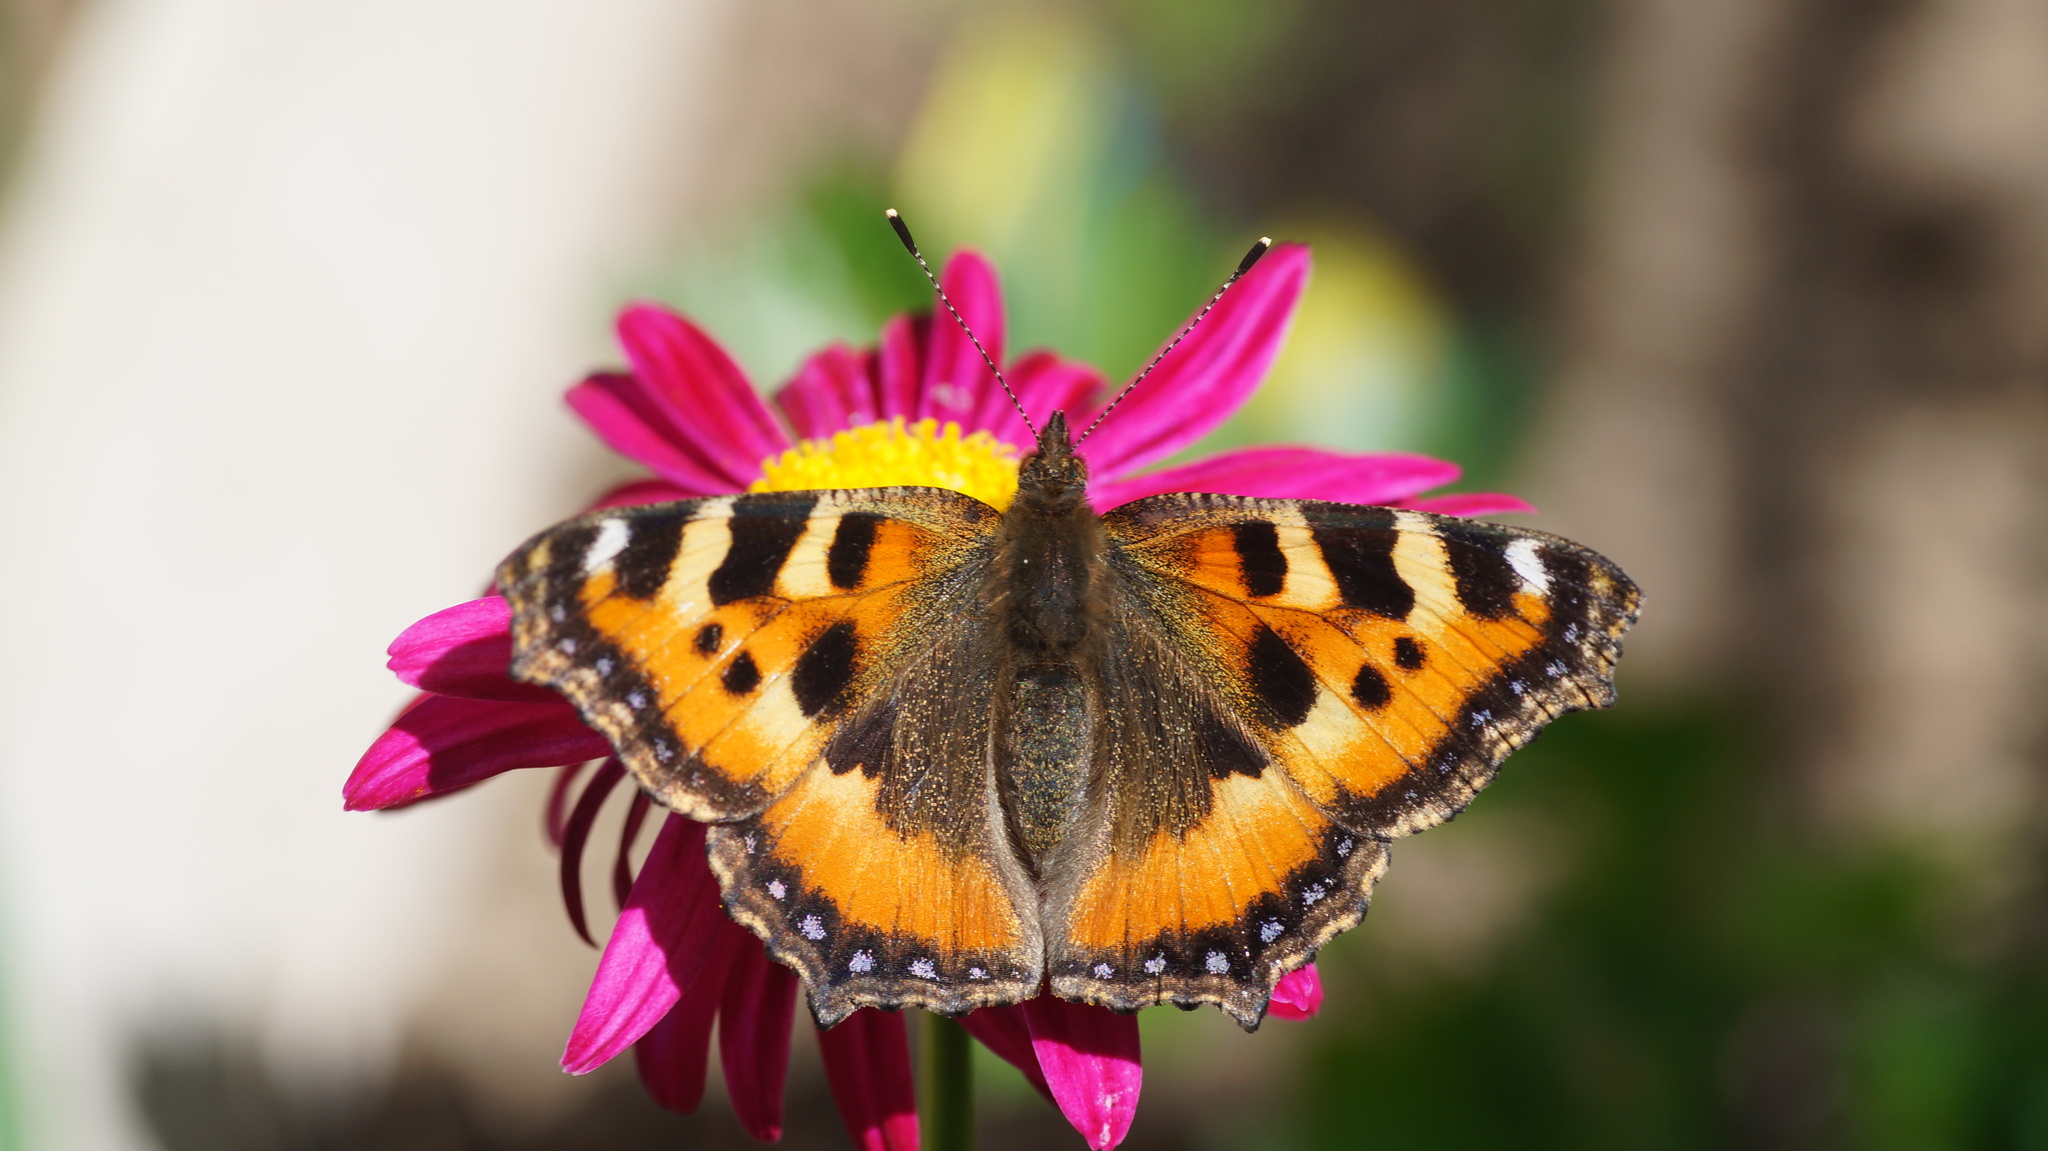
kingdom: Animalia
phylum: Arthropoda
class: Insecta
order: Lepidoptera
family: Nymphalidae
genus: Aglais
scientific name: Aglais urticae
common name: Small tortoiseshell
